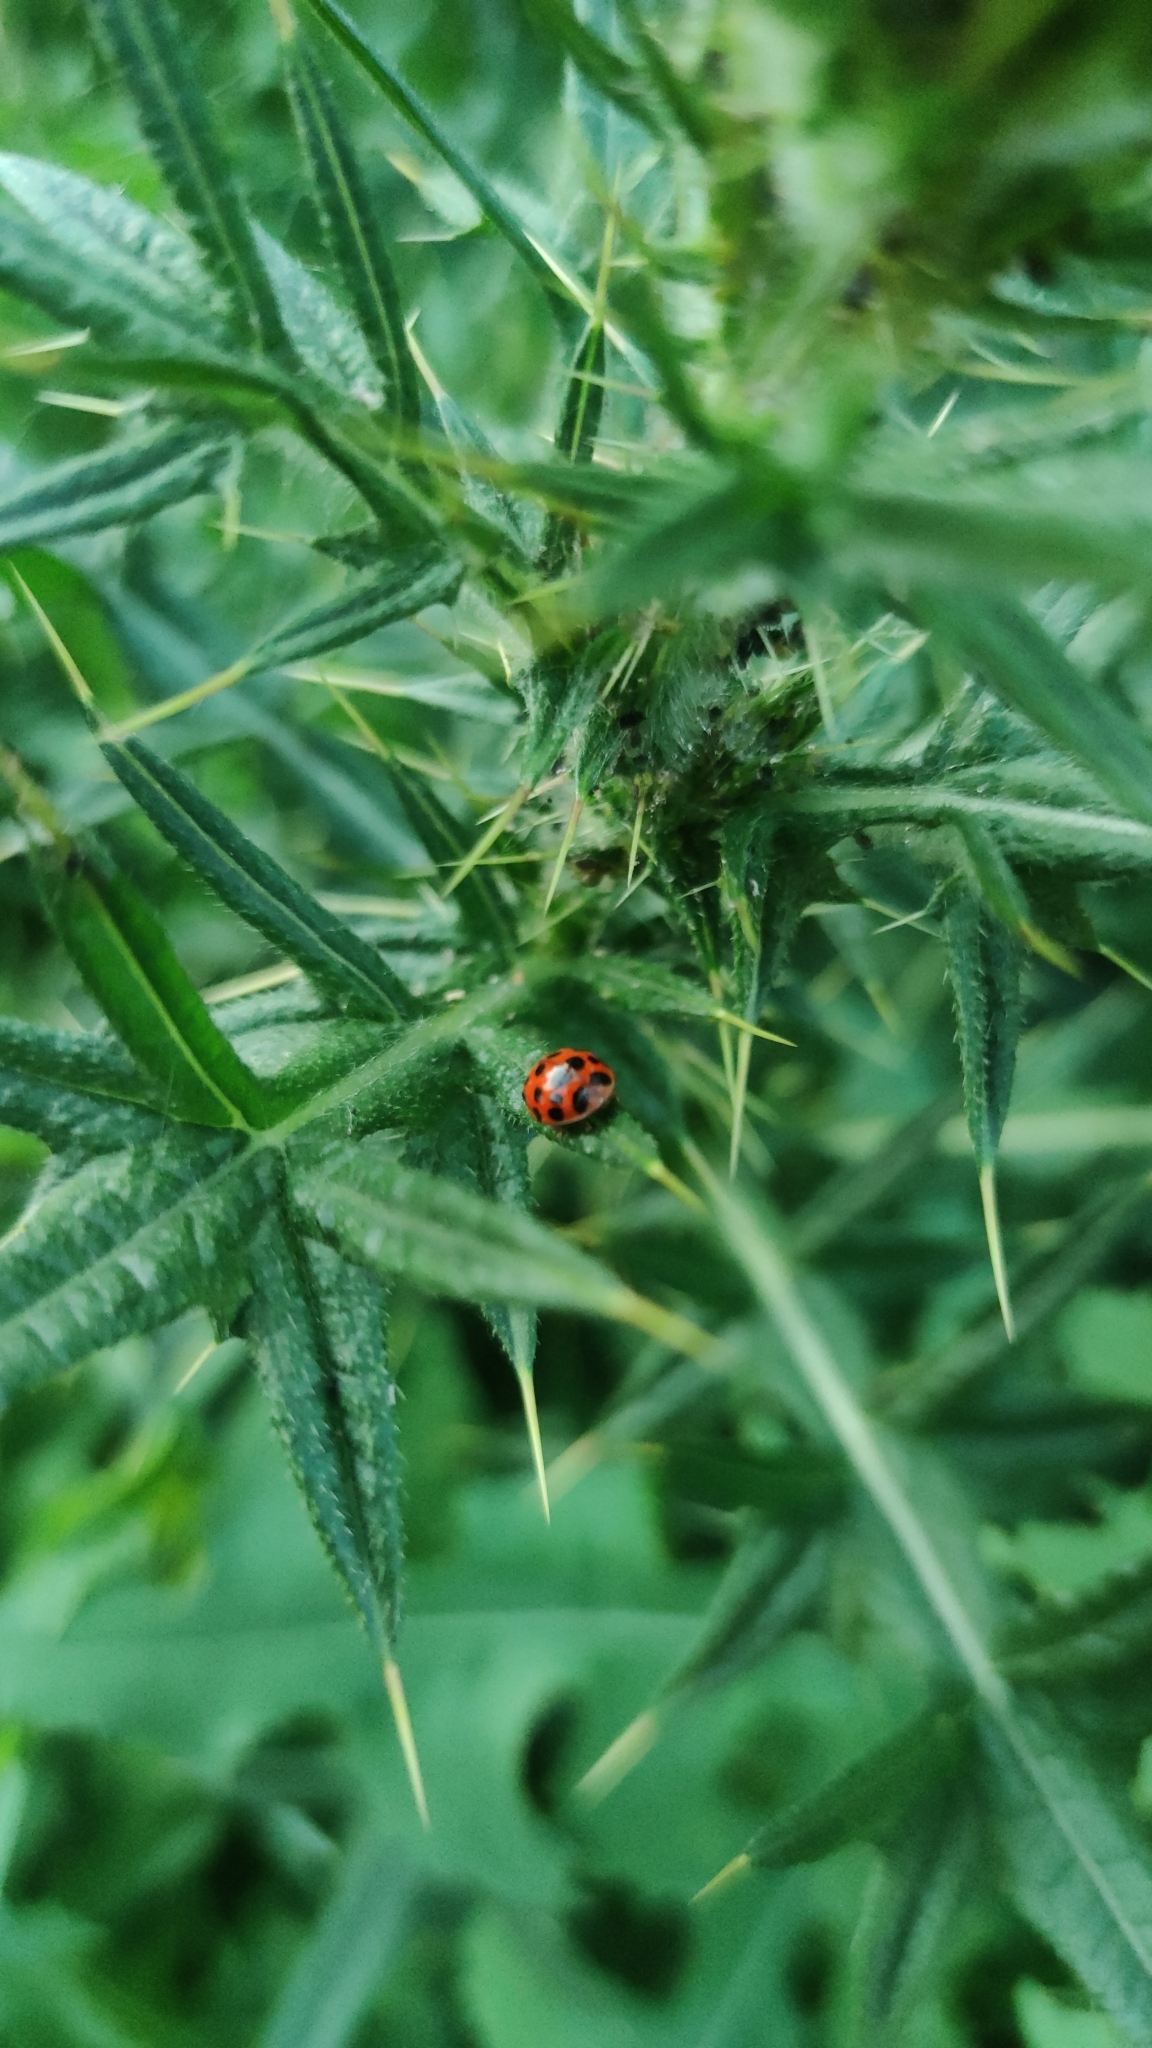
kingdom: Animalia
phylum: Arthropoda
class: Insecta
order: Coleoptera
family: Coccinellidae
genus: Harmonia
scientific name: Harmonia axyridis
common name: Harlequin ladybird
